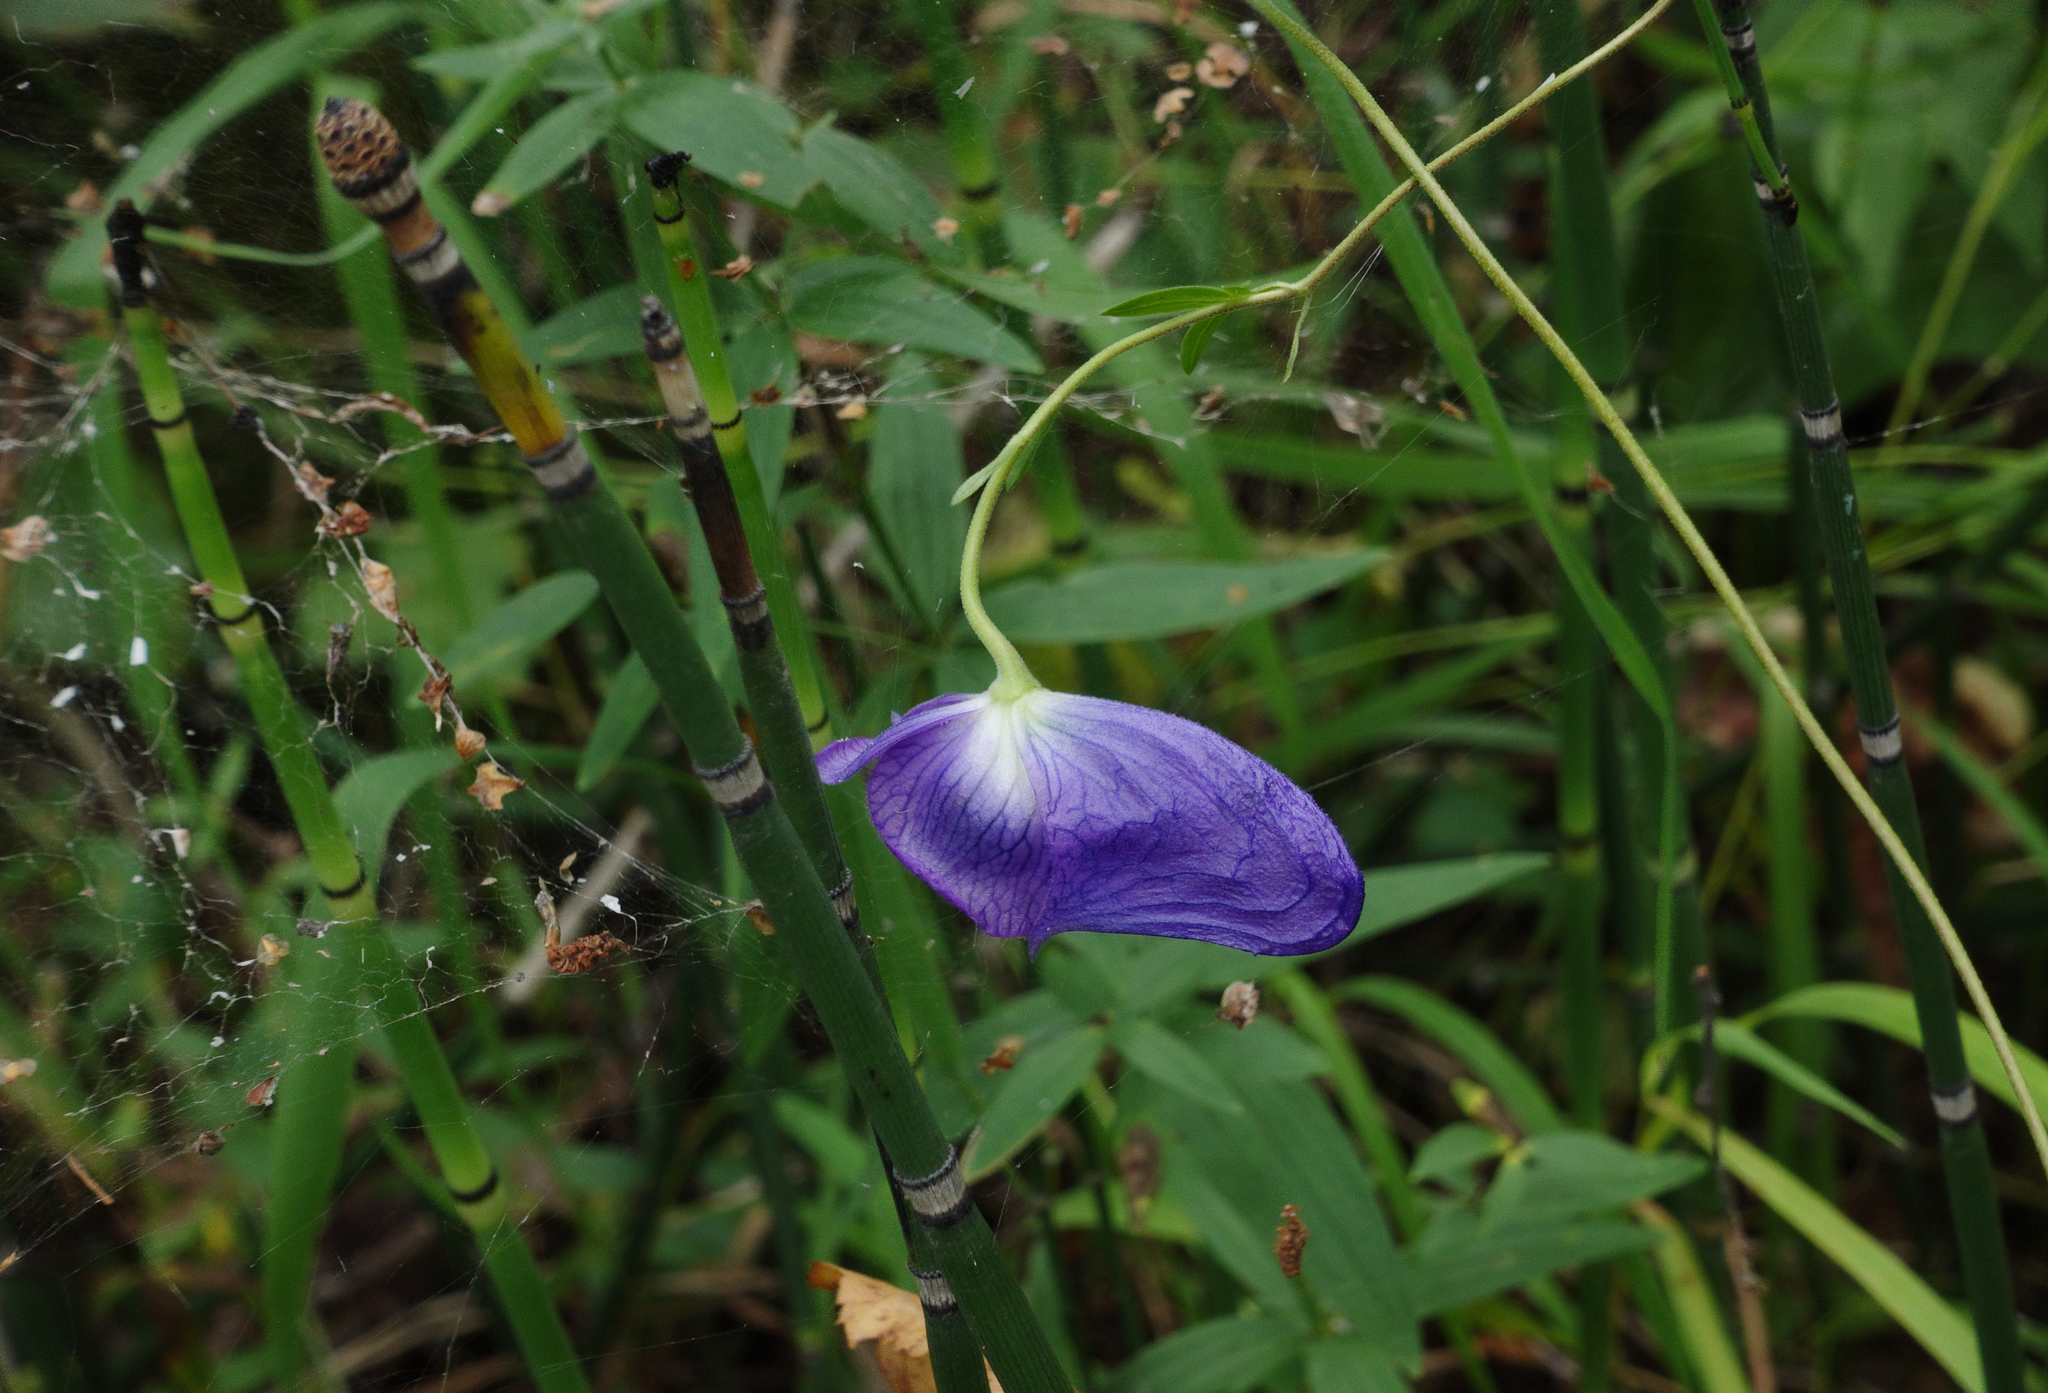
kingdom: Plantae
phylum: Tracheophyta
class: Magnoliopsida
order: Ranunculales
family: Ranunculaceae
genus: Aconitum
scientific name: Aconitum volubile
